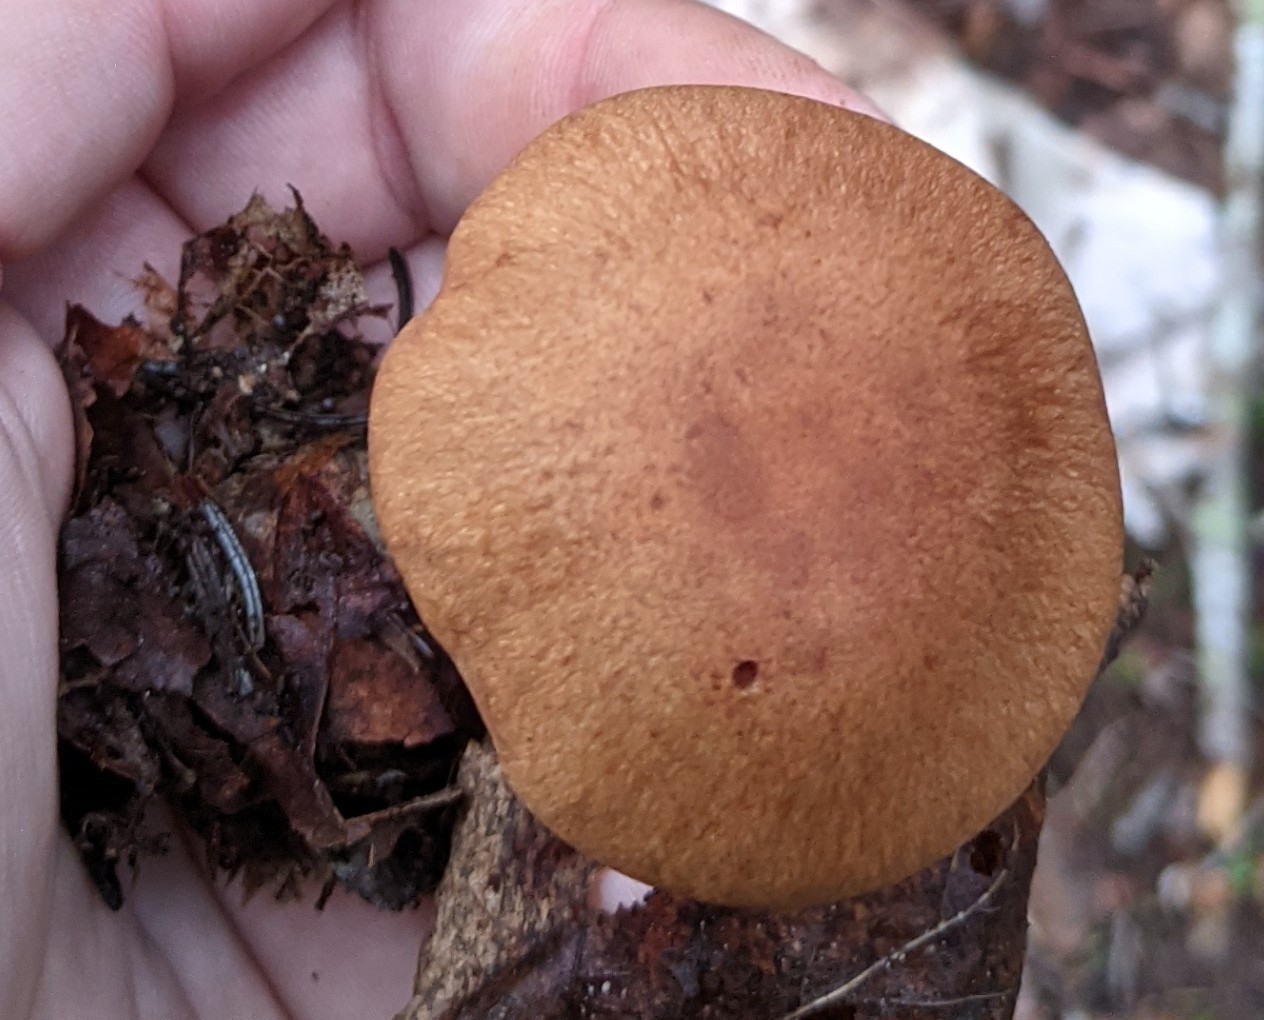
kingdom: Fungi
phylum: Basidiomycota
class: Agaricomycetes
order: Agaricales
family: Cortinariaceae
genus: Cortinarius
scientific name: Cortinarius armillatus
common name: Red banded webcap
